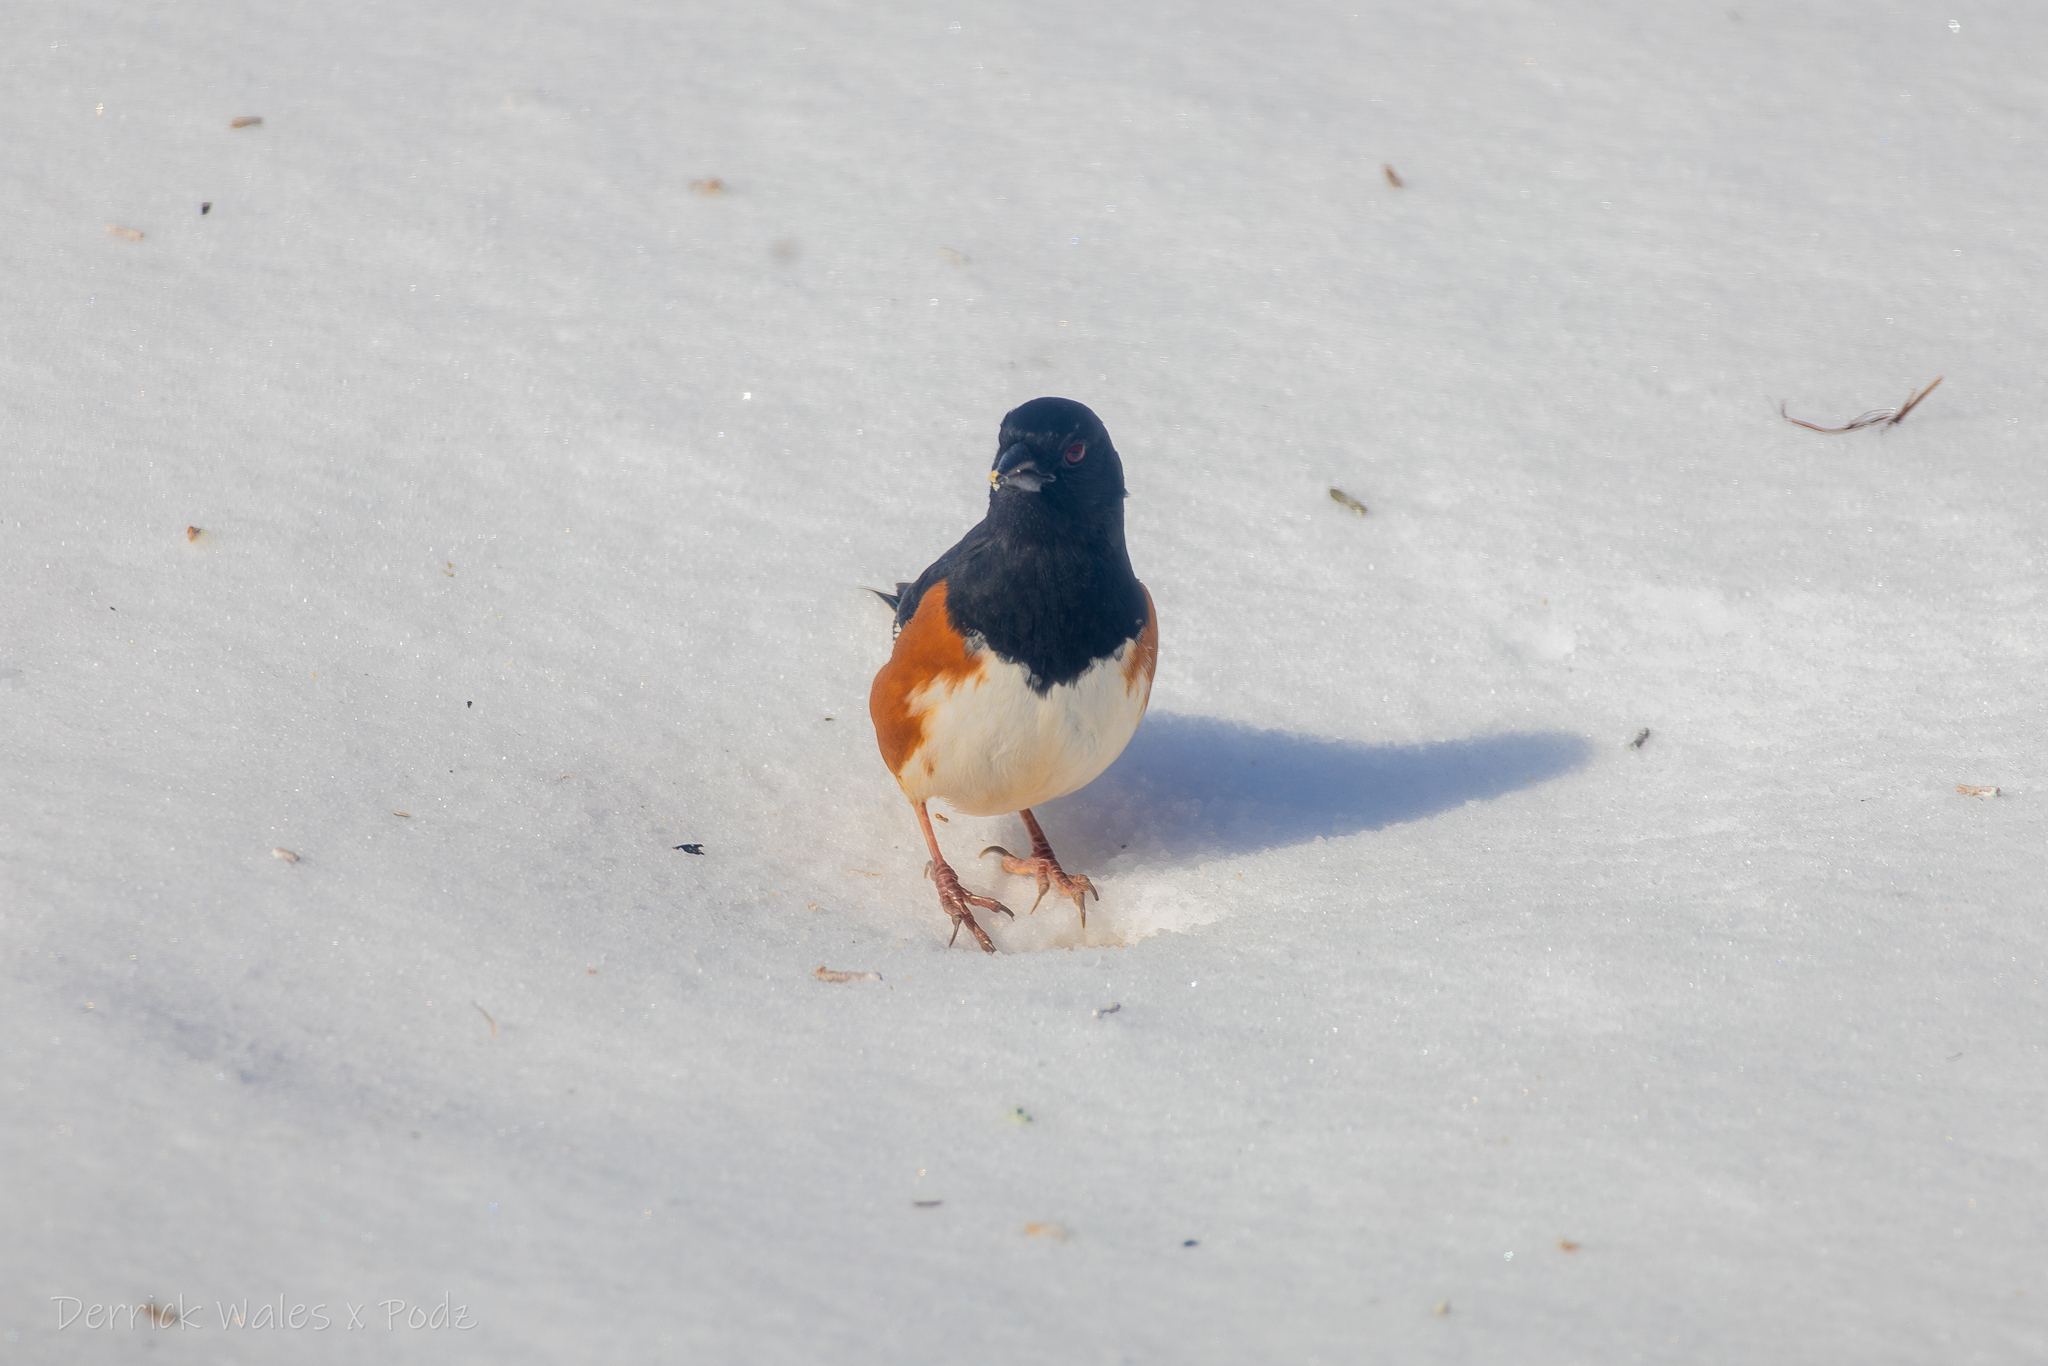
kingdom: Animalia
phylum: Chordata
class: Aves
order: Passeriformes
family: Passerellidae
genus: Pipilo
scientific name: Pipilo erythrophthalmus
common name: Eastern towhee
